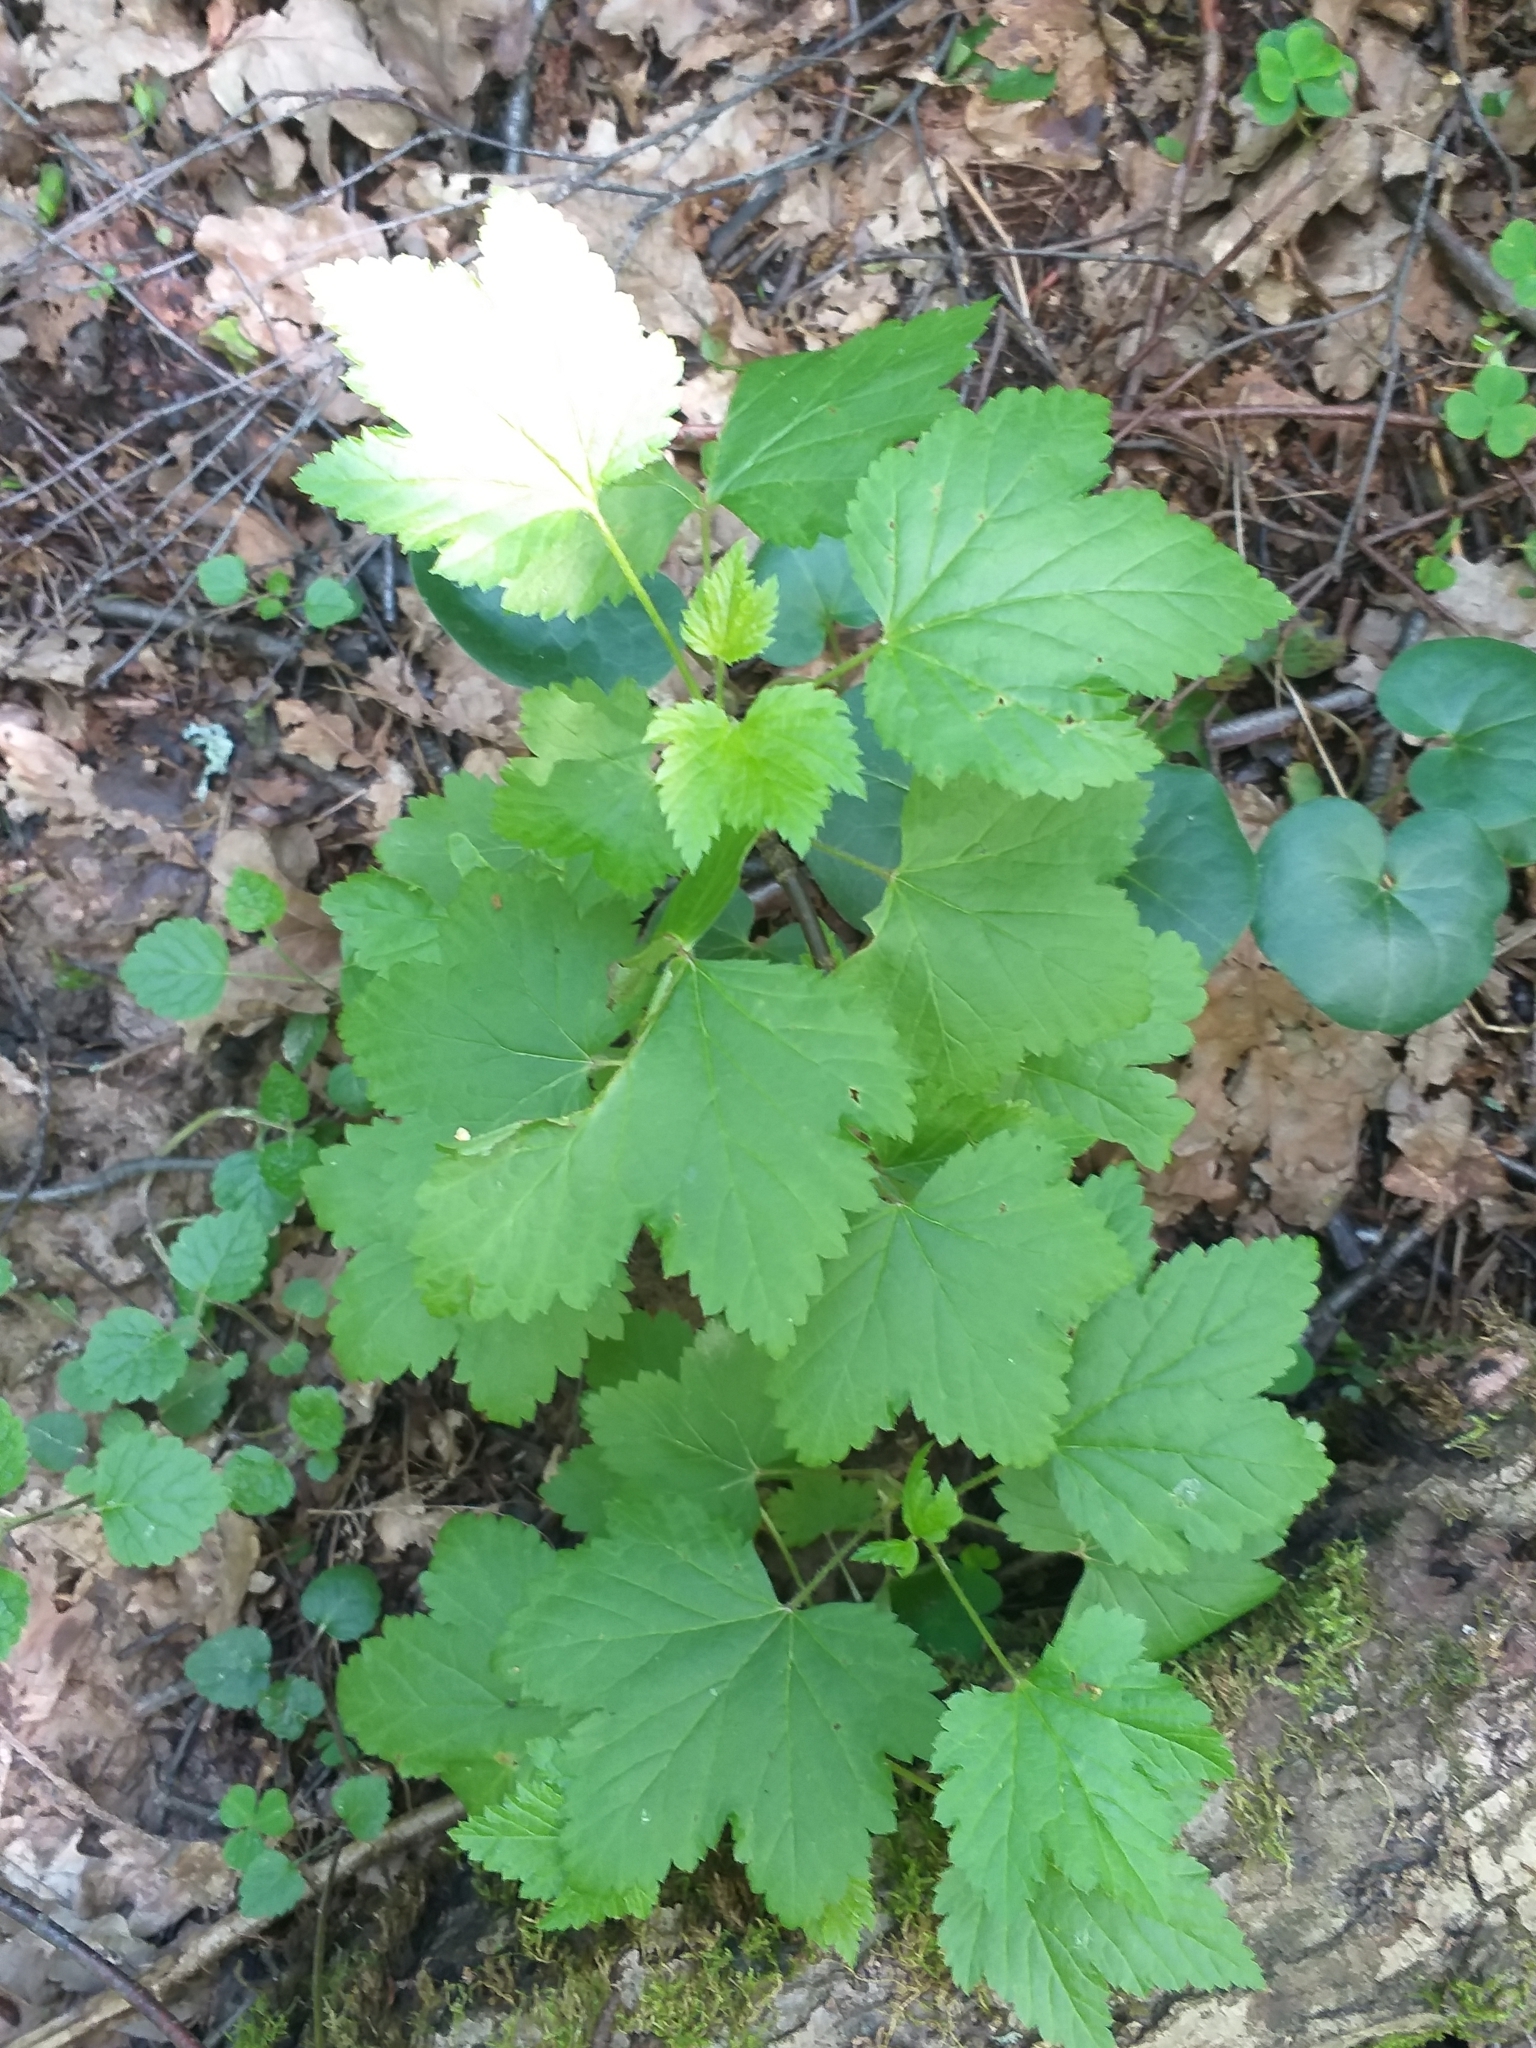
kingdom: Plantae
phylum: Tracheophyta
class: Magnoliopsida
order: Saxifragales
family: Grossulariaceae
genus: Ribes
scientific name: Ribes rubrum
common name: Red currant
